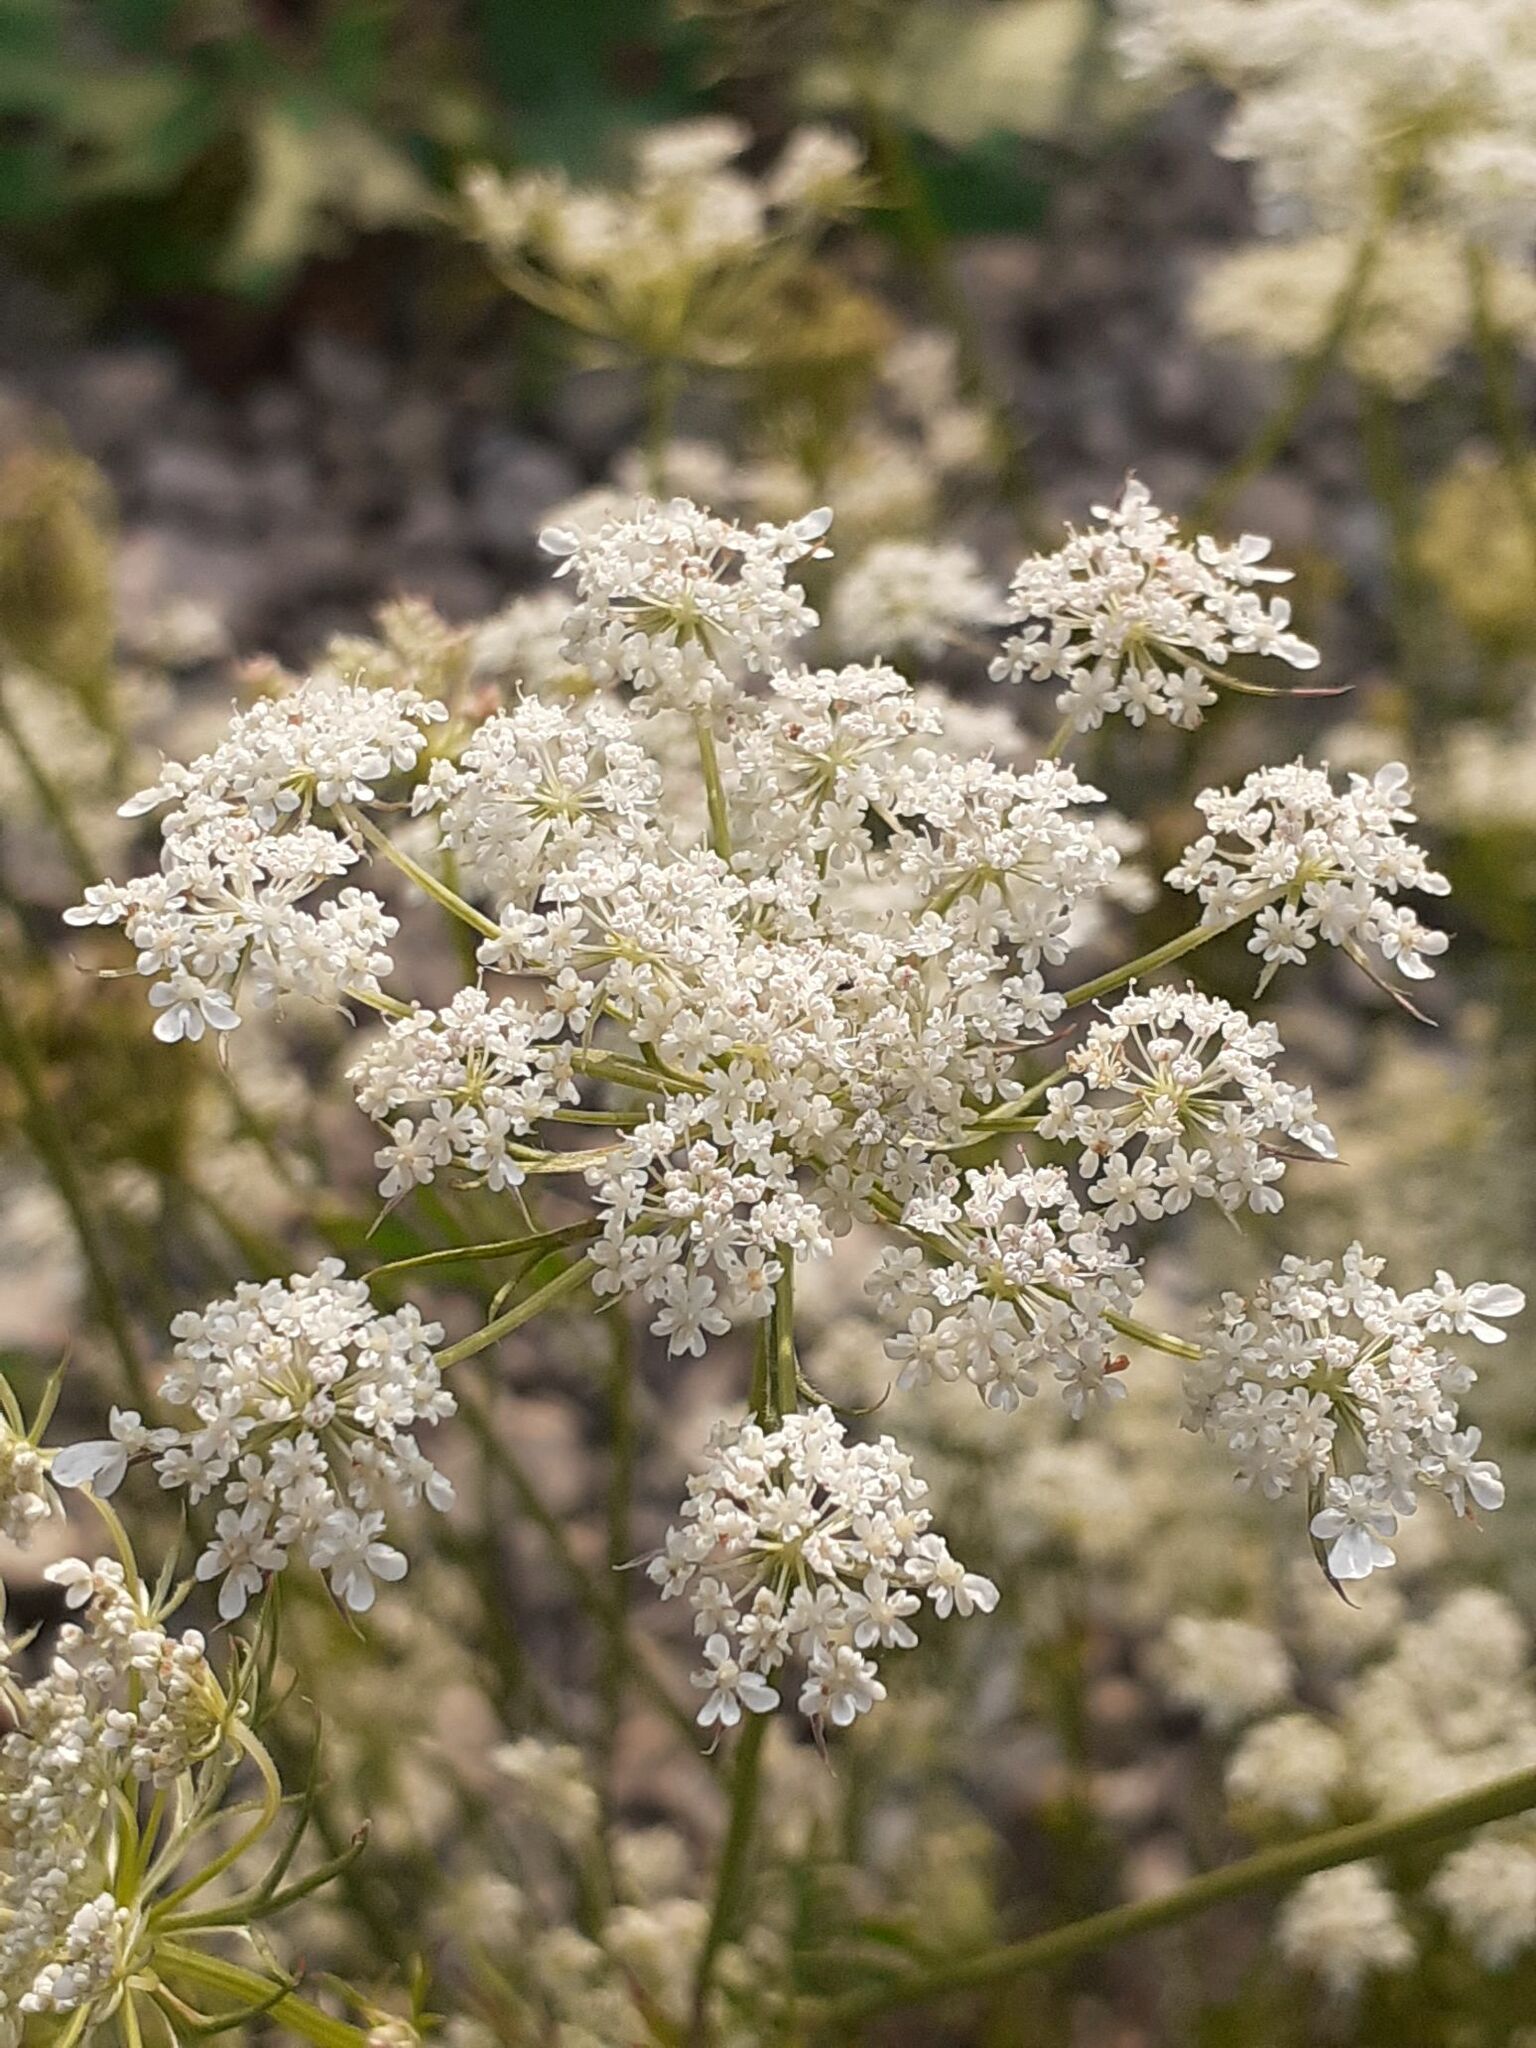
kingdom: Plantae
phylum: Tracheophyta
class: Magnoliopsida
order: Apiales
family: Apiaceae
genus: Daucus
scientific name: Daucus carota
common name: Wild carrot
